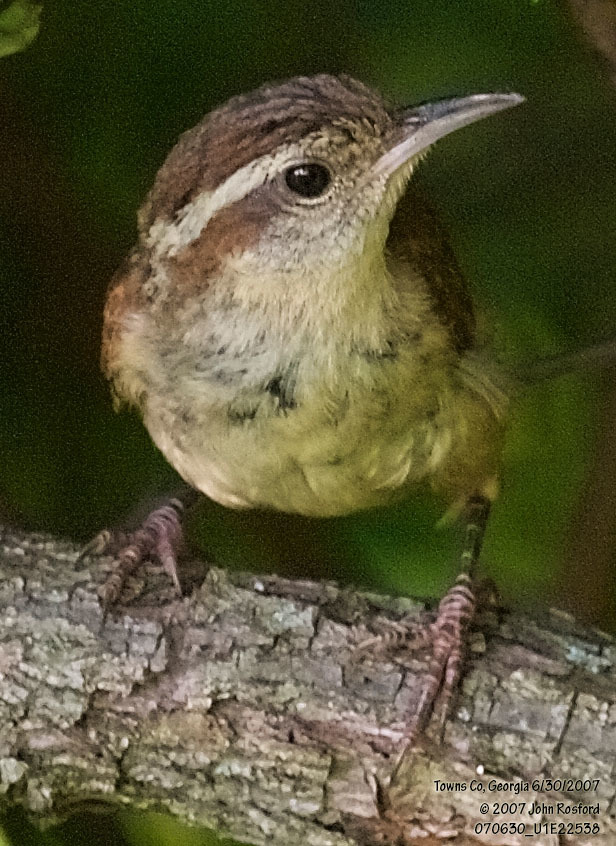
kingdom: Animalia
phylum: Chordata
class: Aves
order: Passeriformes
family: Troglodytidae
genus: Thryothorus
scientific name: Thryothorus ludovicianus
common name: Carolina wren
